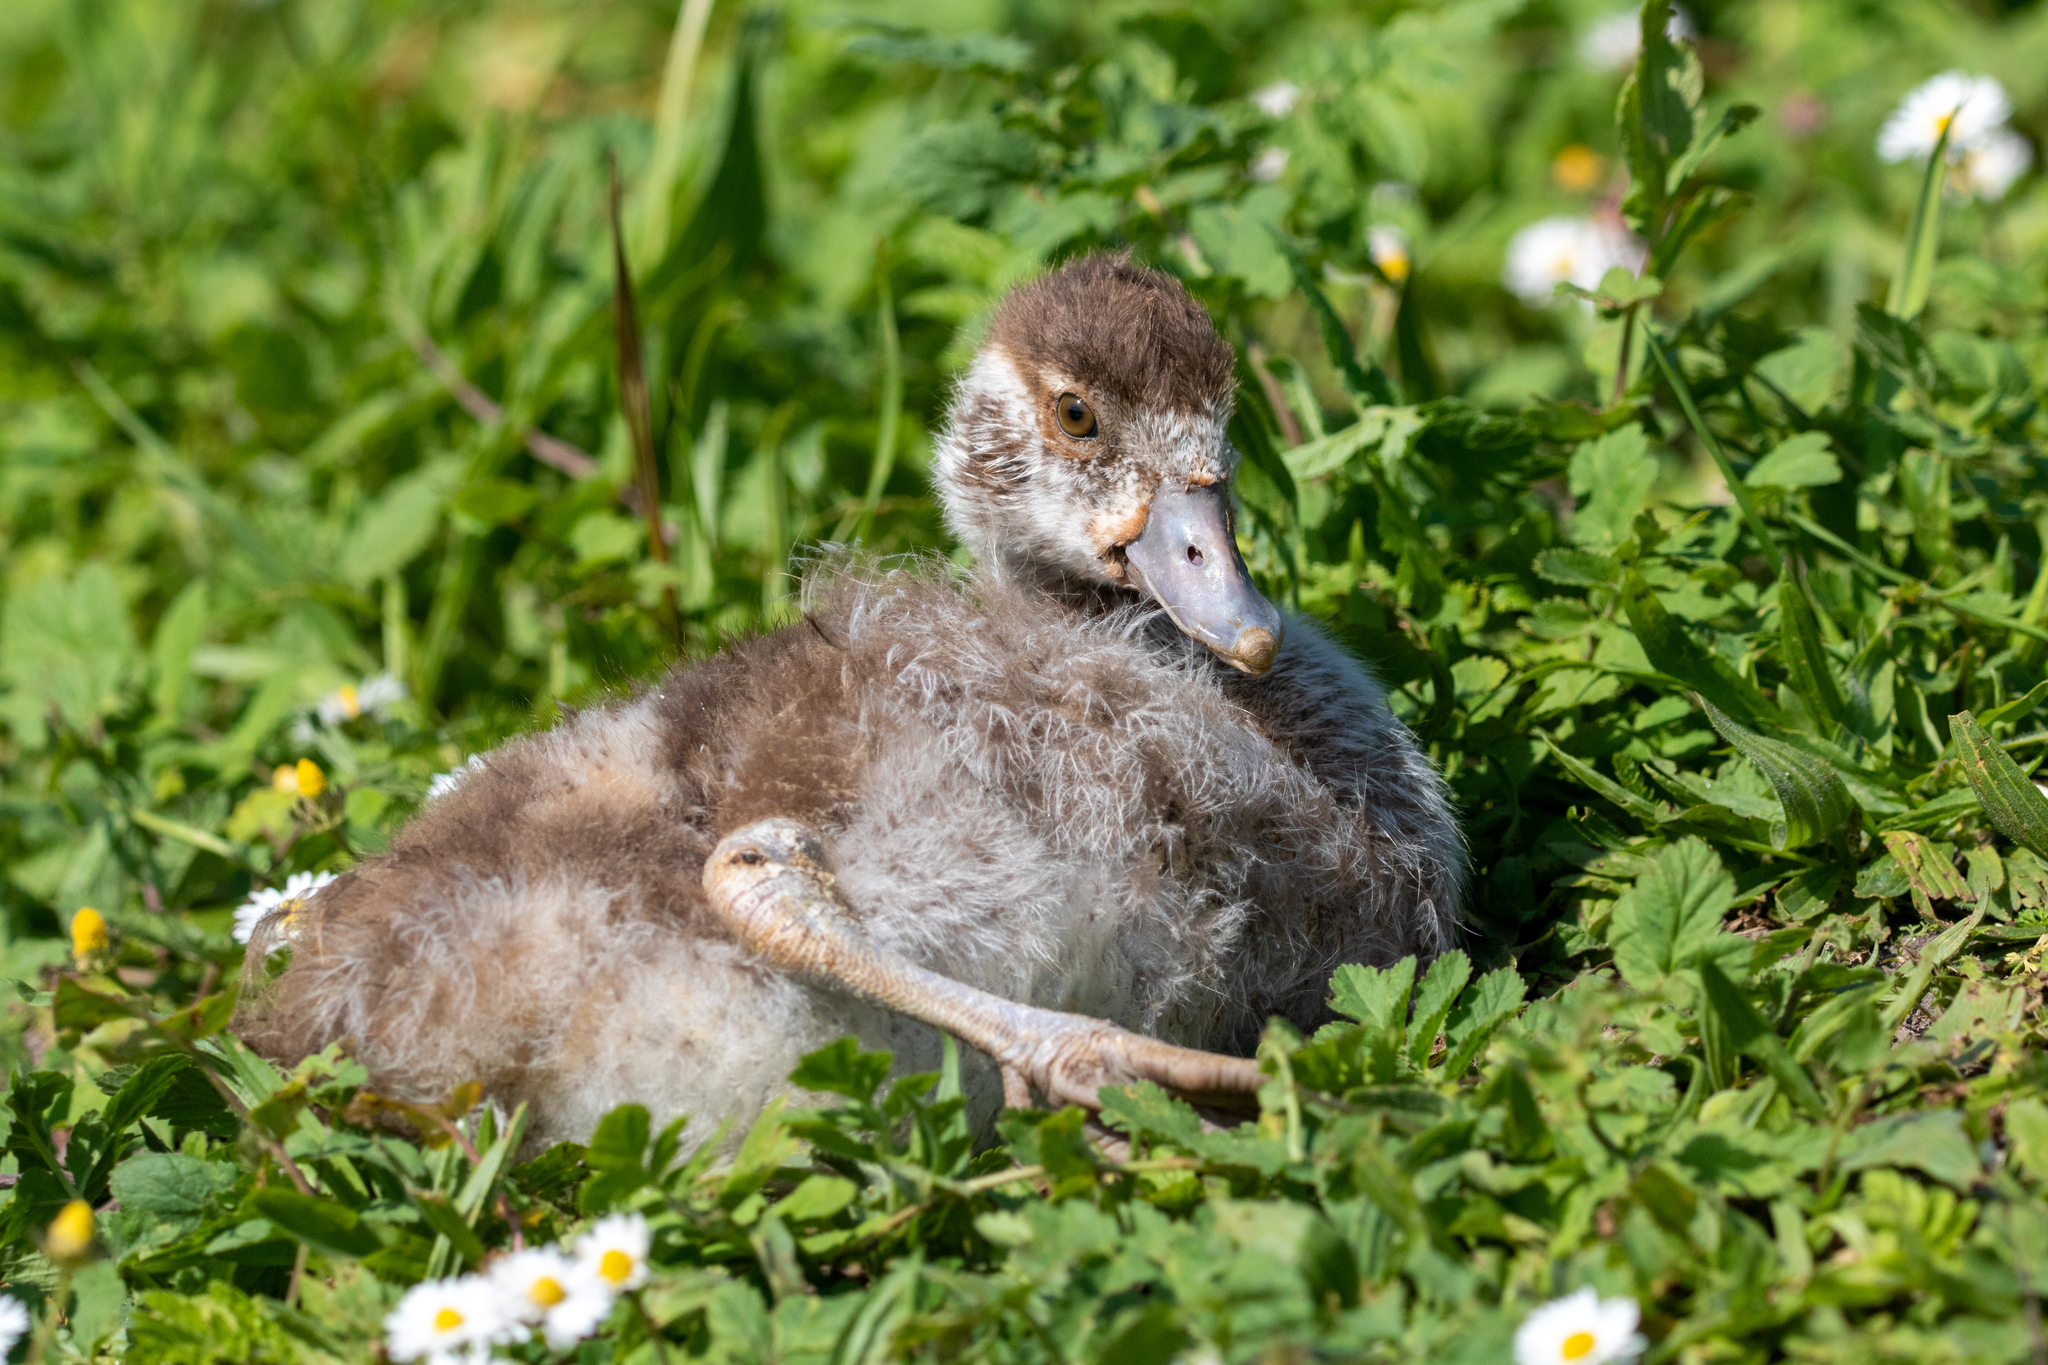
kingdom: Animalia
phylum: Chordata
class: Aves
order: Anseriformes
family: Anatidae
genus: Alopochen
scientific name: Alopochen aegyptiaca
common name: Egyptian goose
